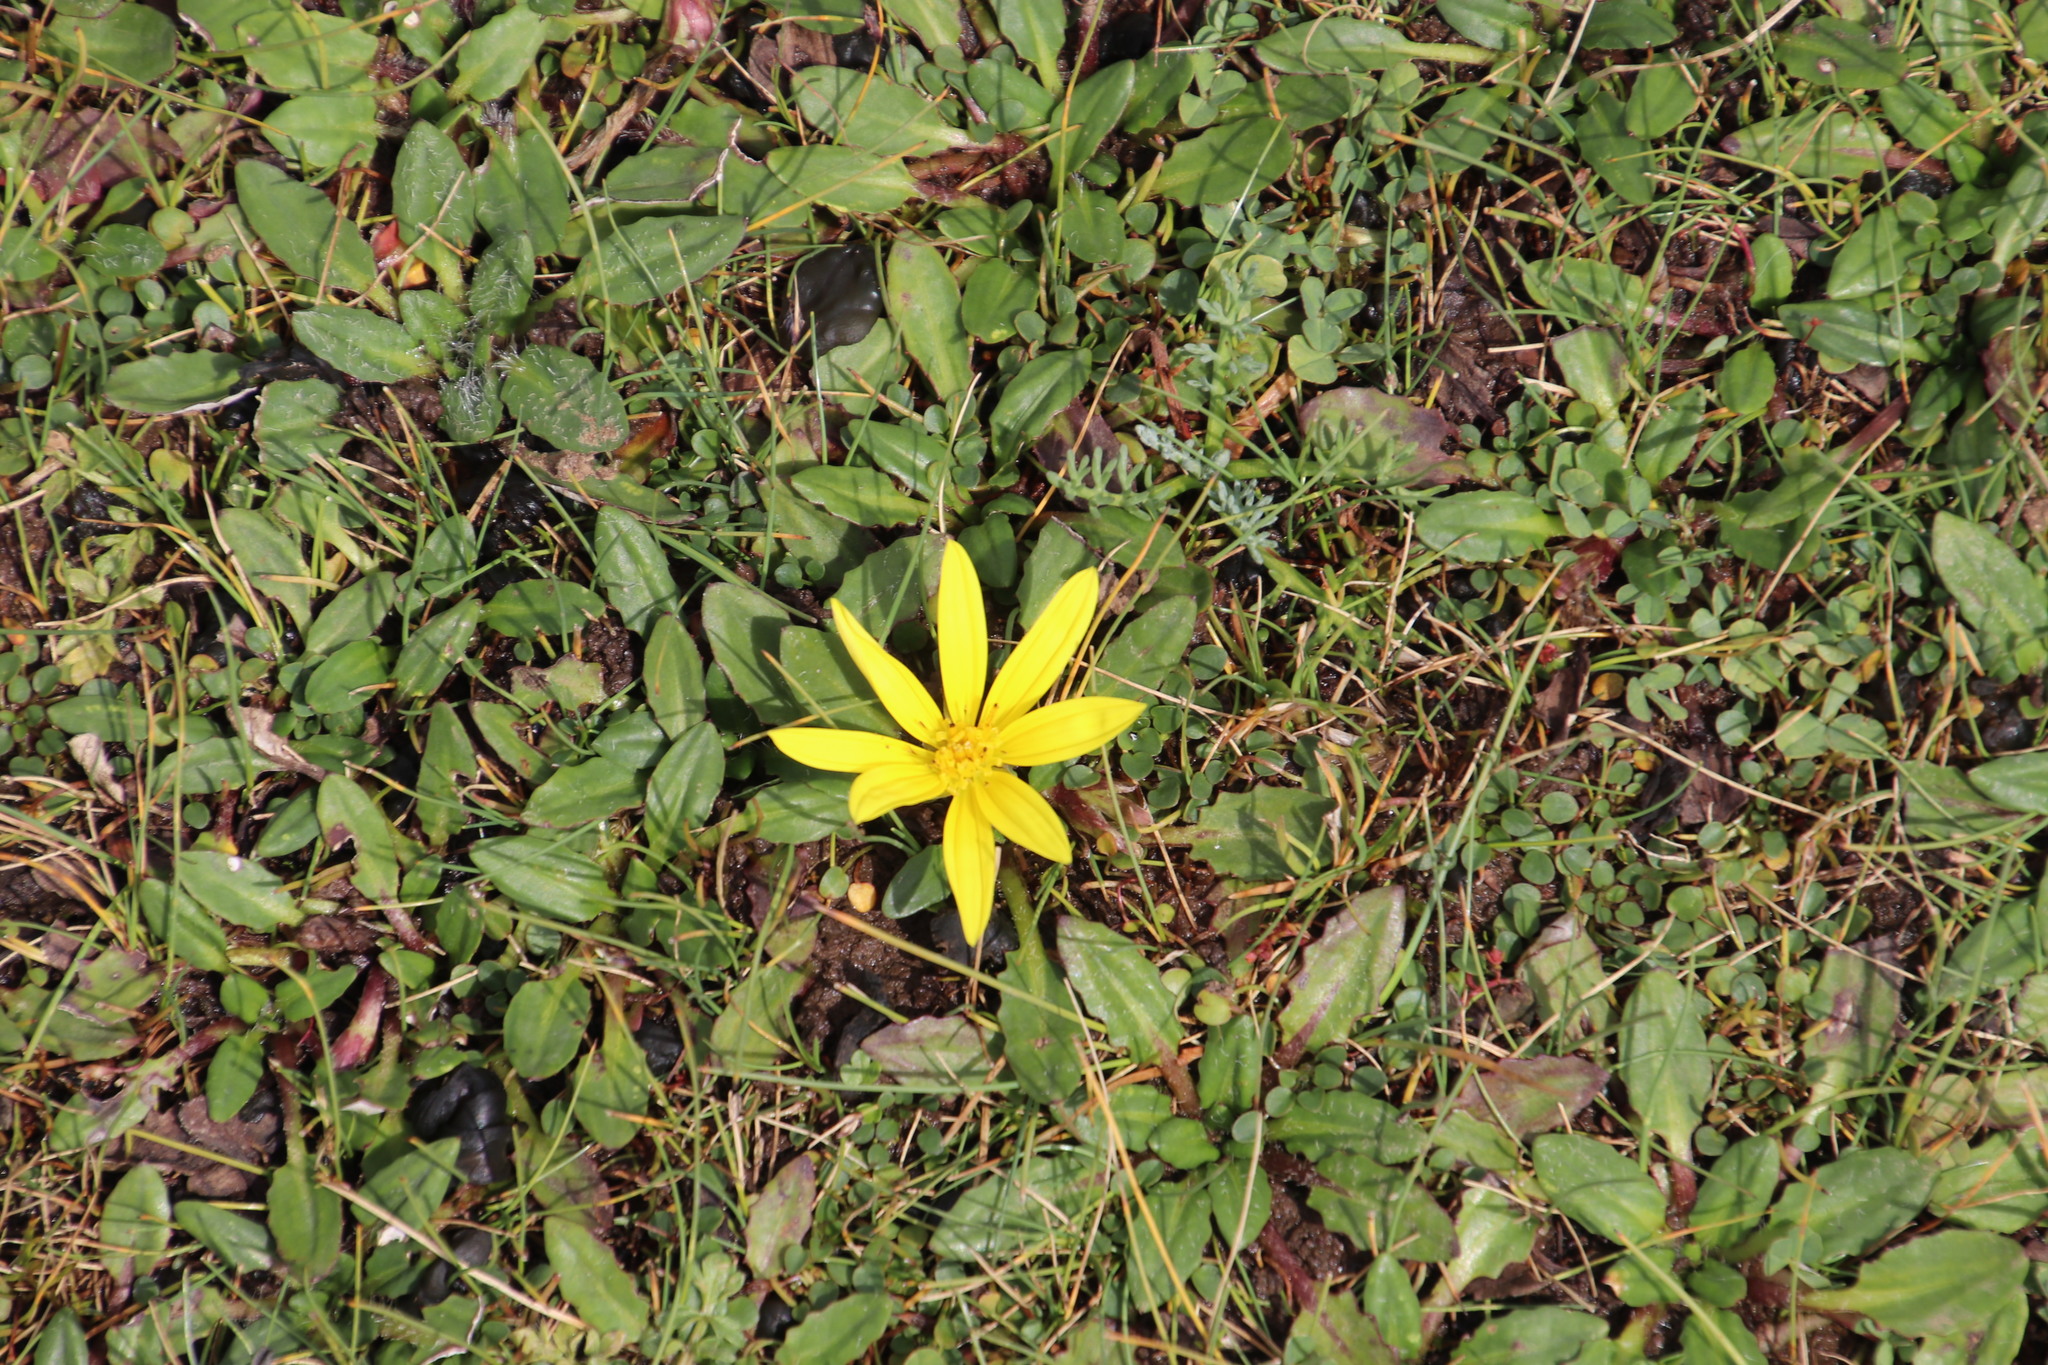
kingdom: Plantae
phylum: Tracheophyta
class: Magnoliopsida
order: Asterales
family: Asteraceae
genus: Haplocarpha
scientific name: Haplocarpha nervosa
